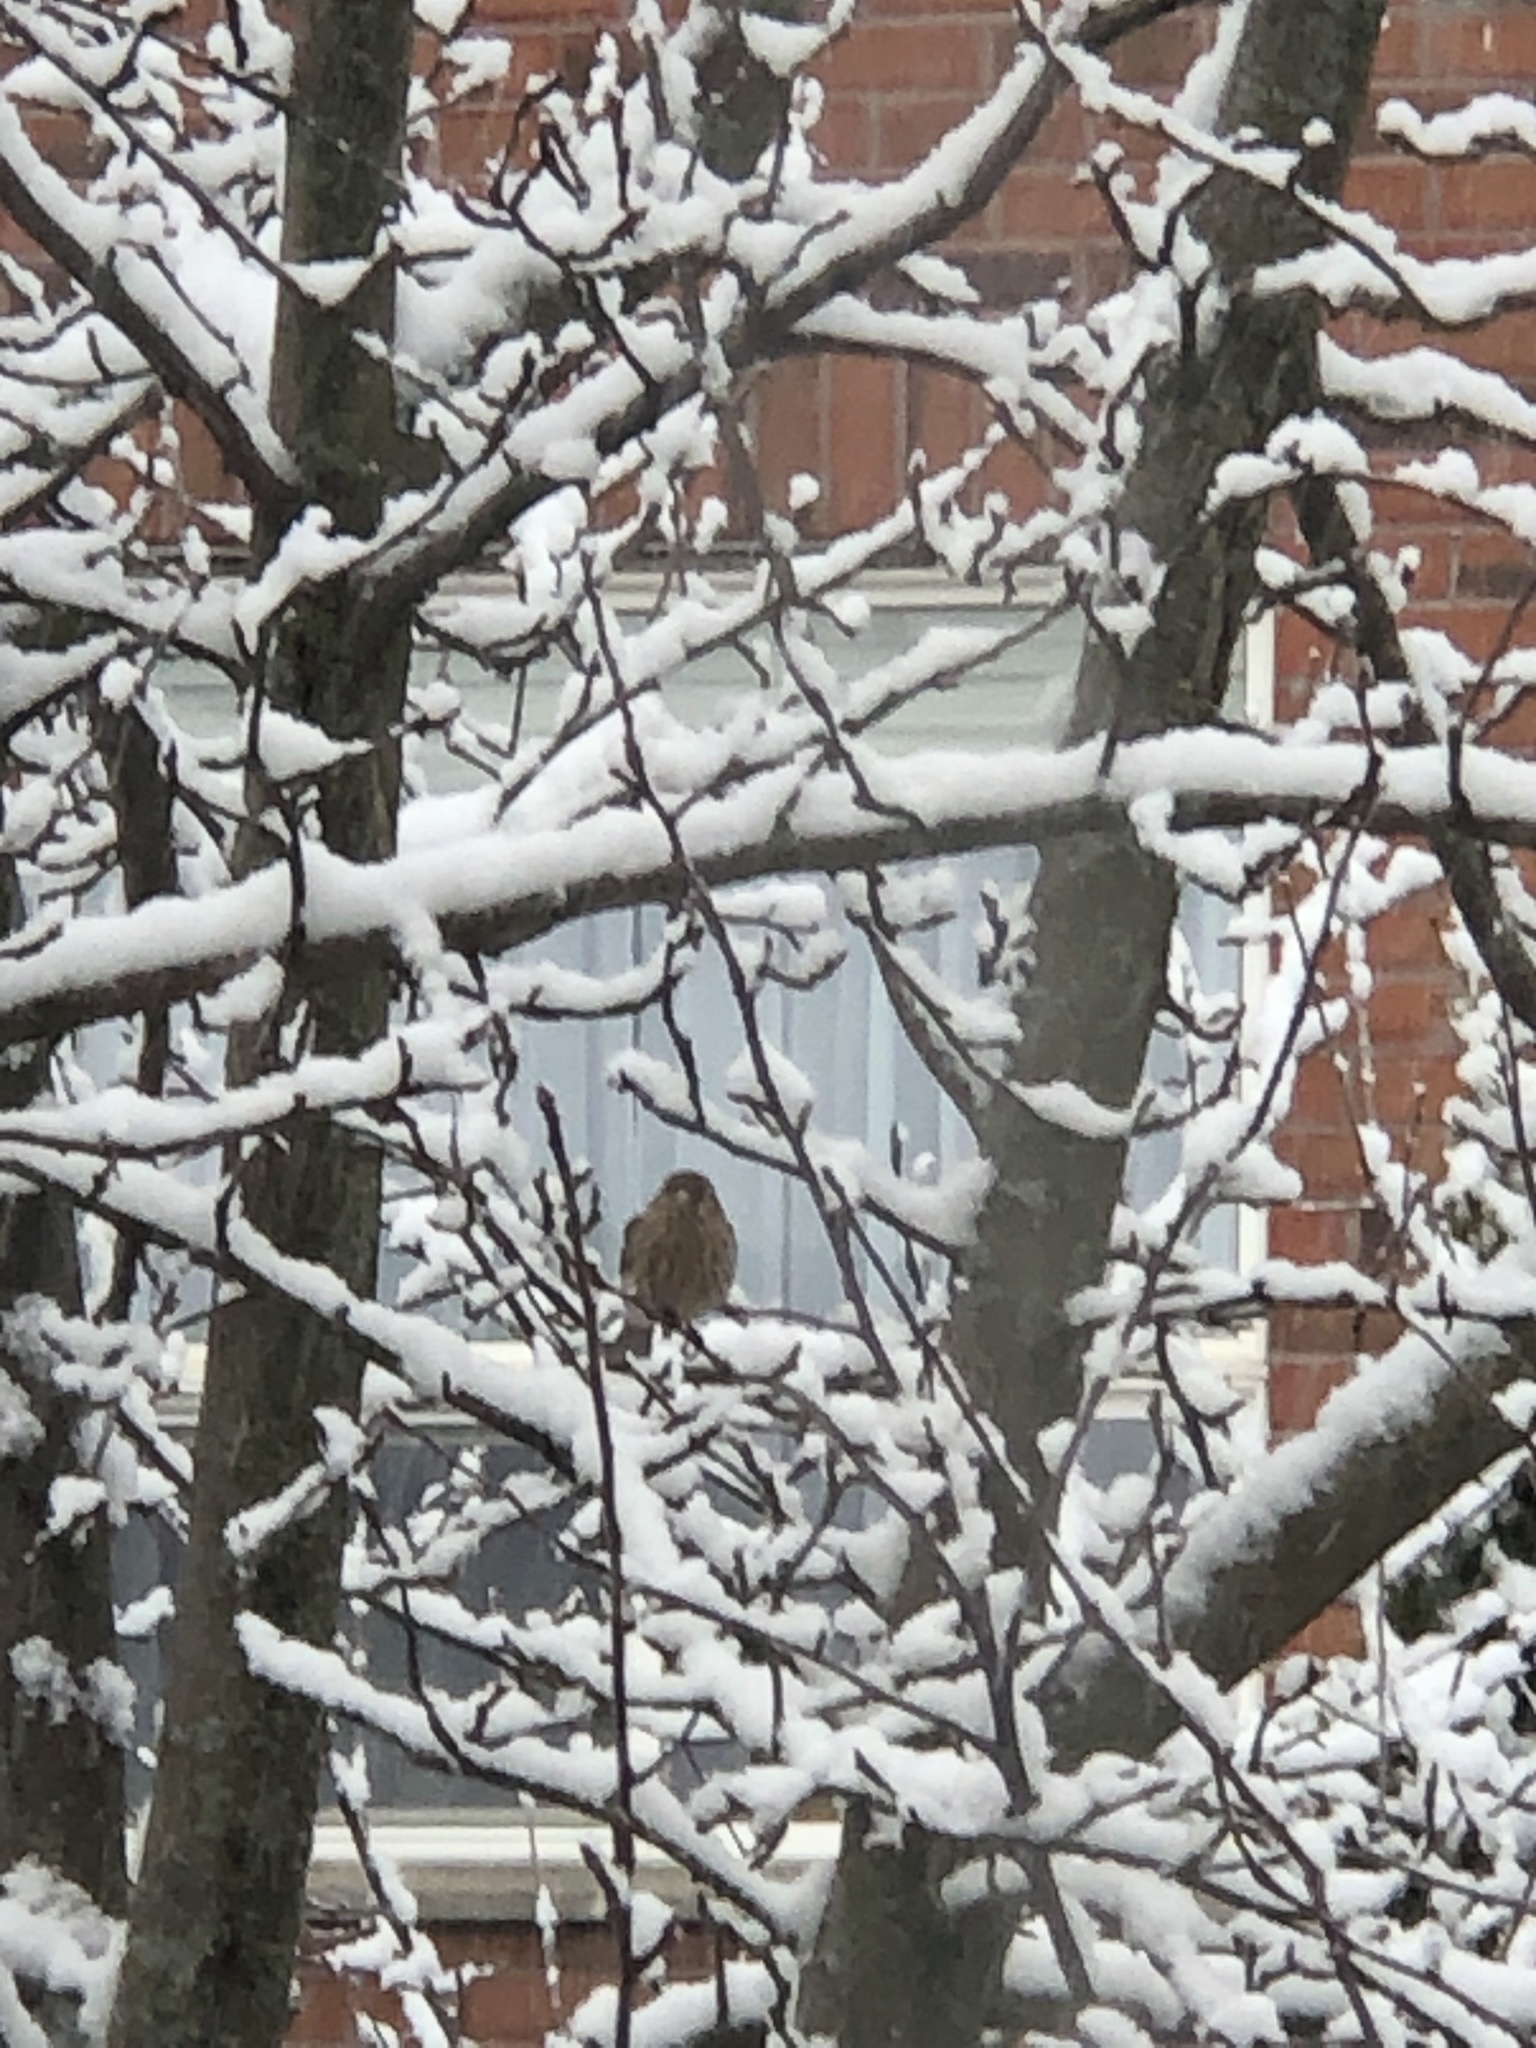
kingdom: Animalia
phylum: Chordata
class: Aves
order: Passeriformes
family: Fringillidae
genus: Haemorhous
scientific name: Haemorhous mexicanus
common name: House finch
